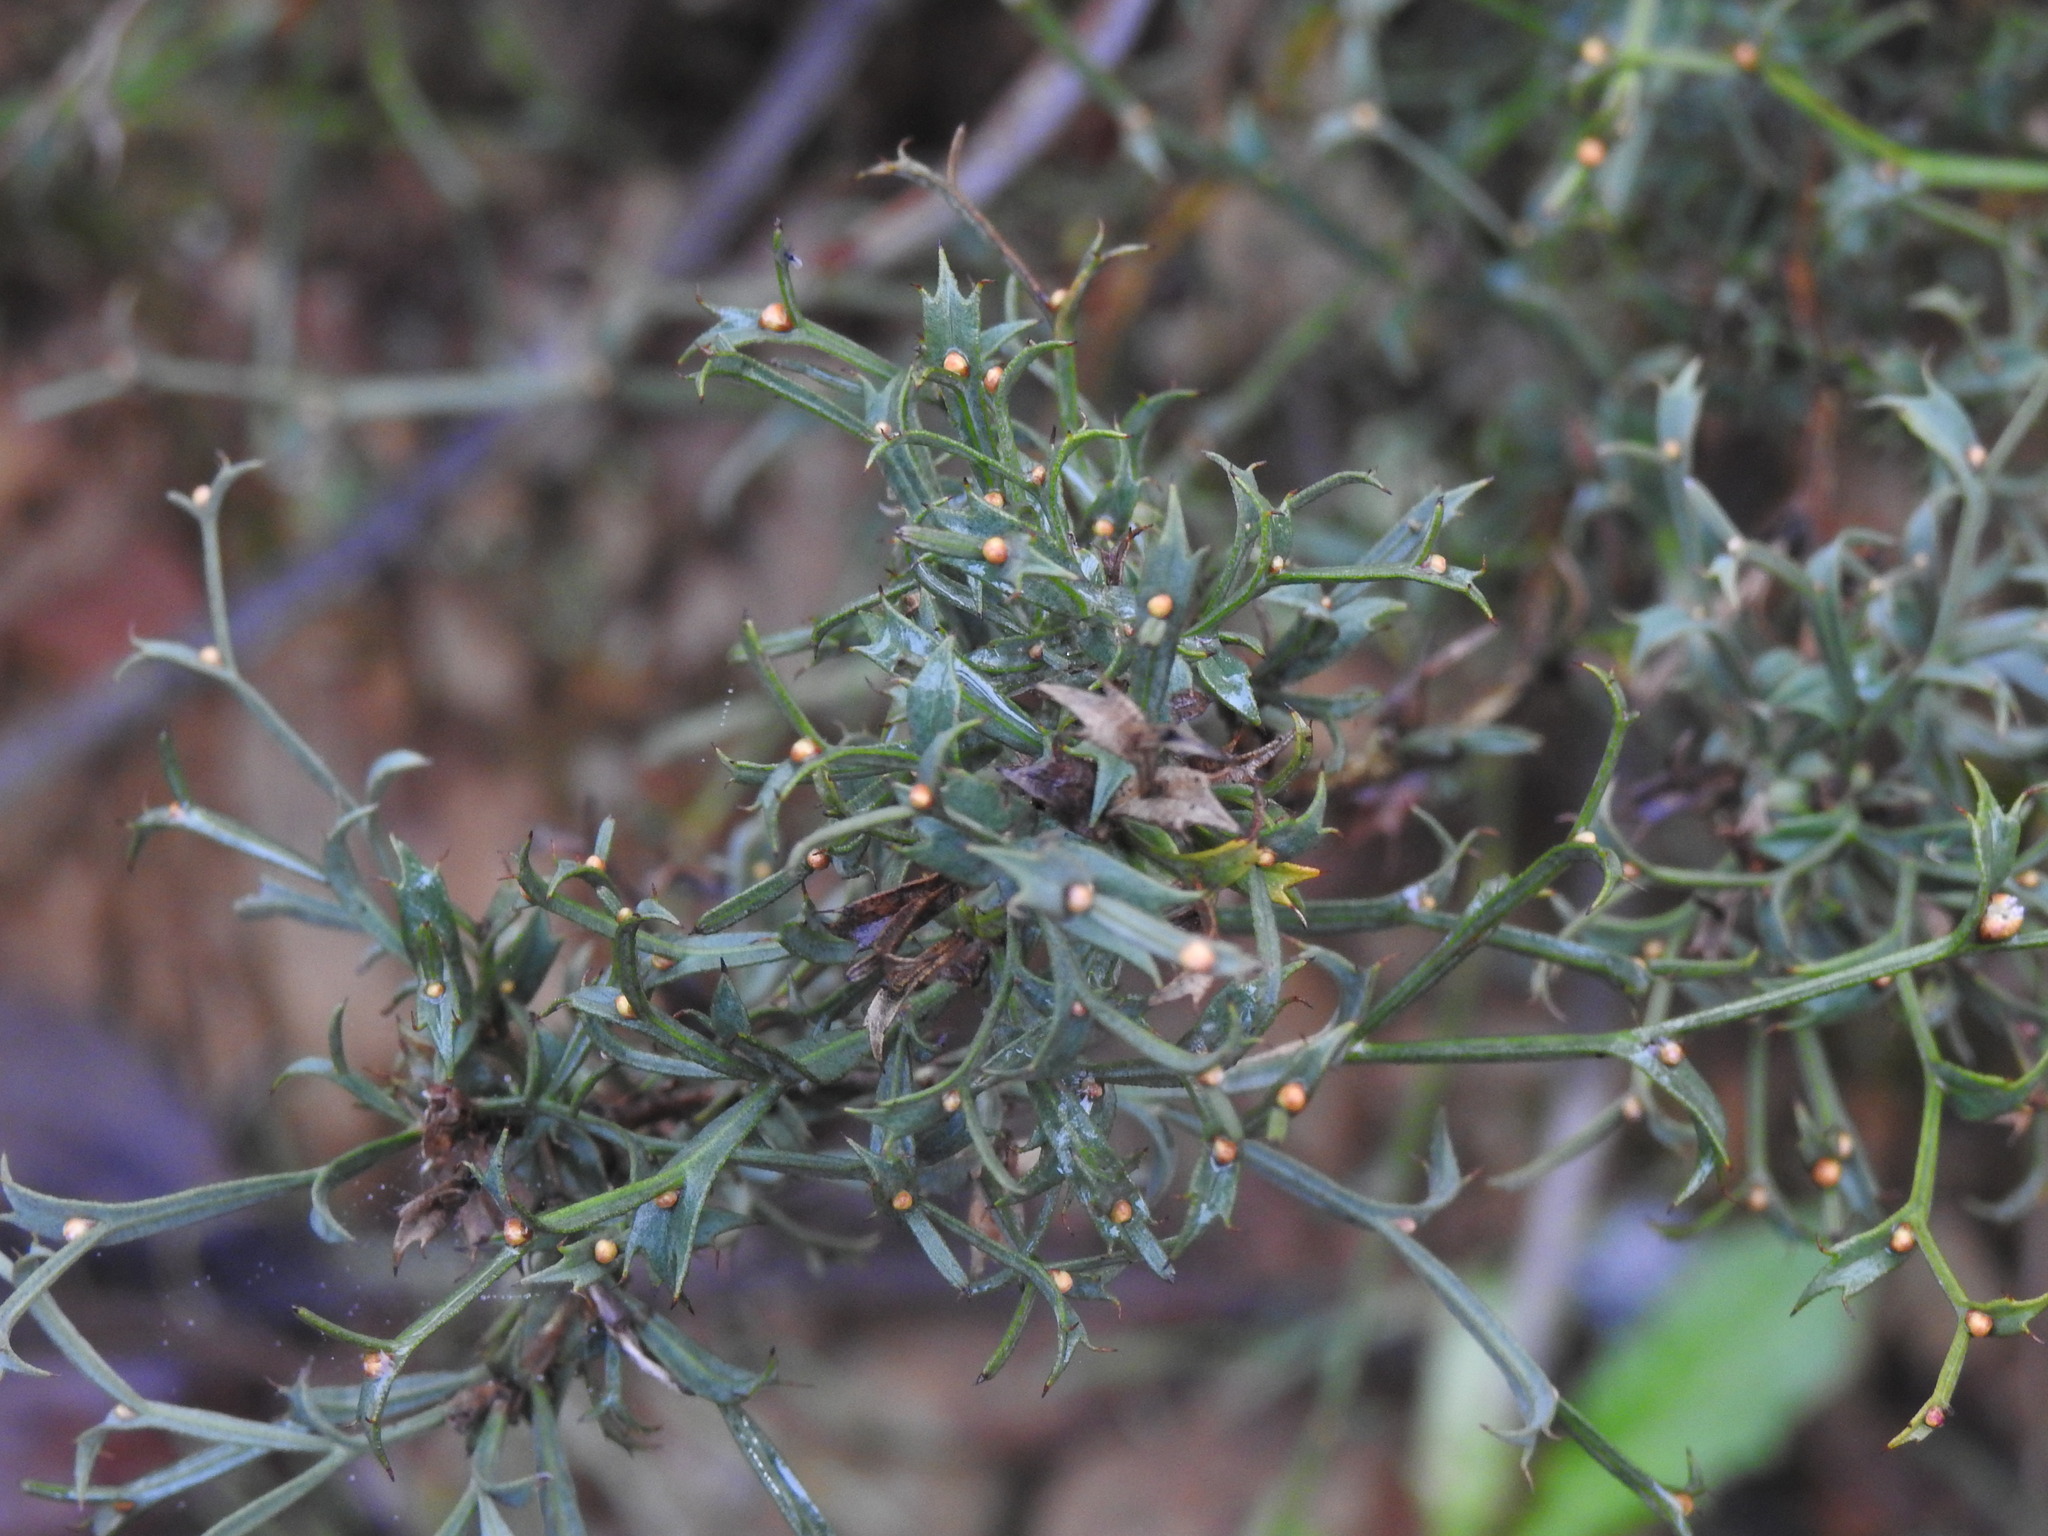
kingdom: Plantae
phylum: Tracheophyta
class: Magnoliopsida
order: Fabales
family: Fabaceae
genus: Genista
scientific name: Genista tridentata
